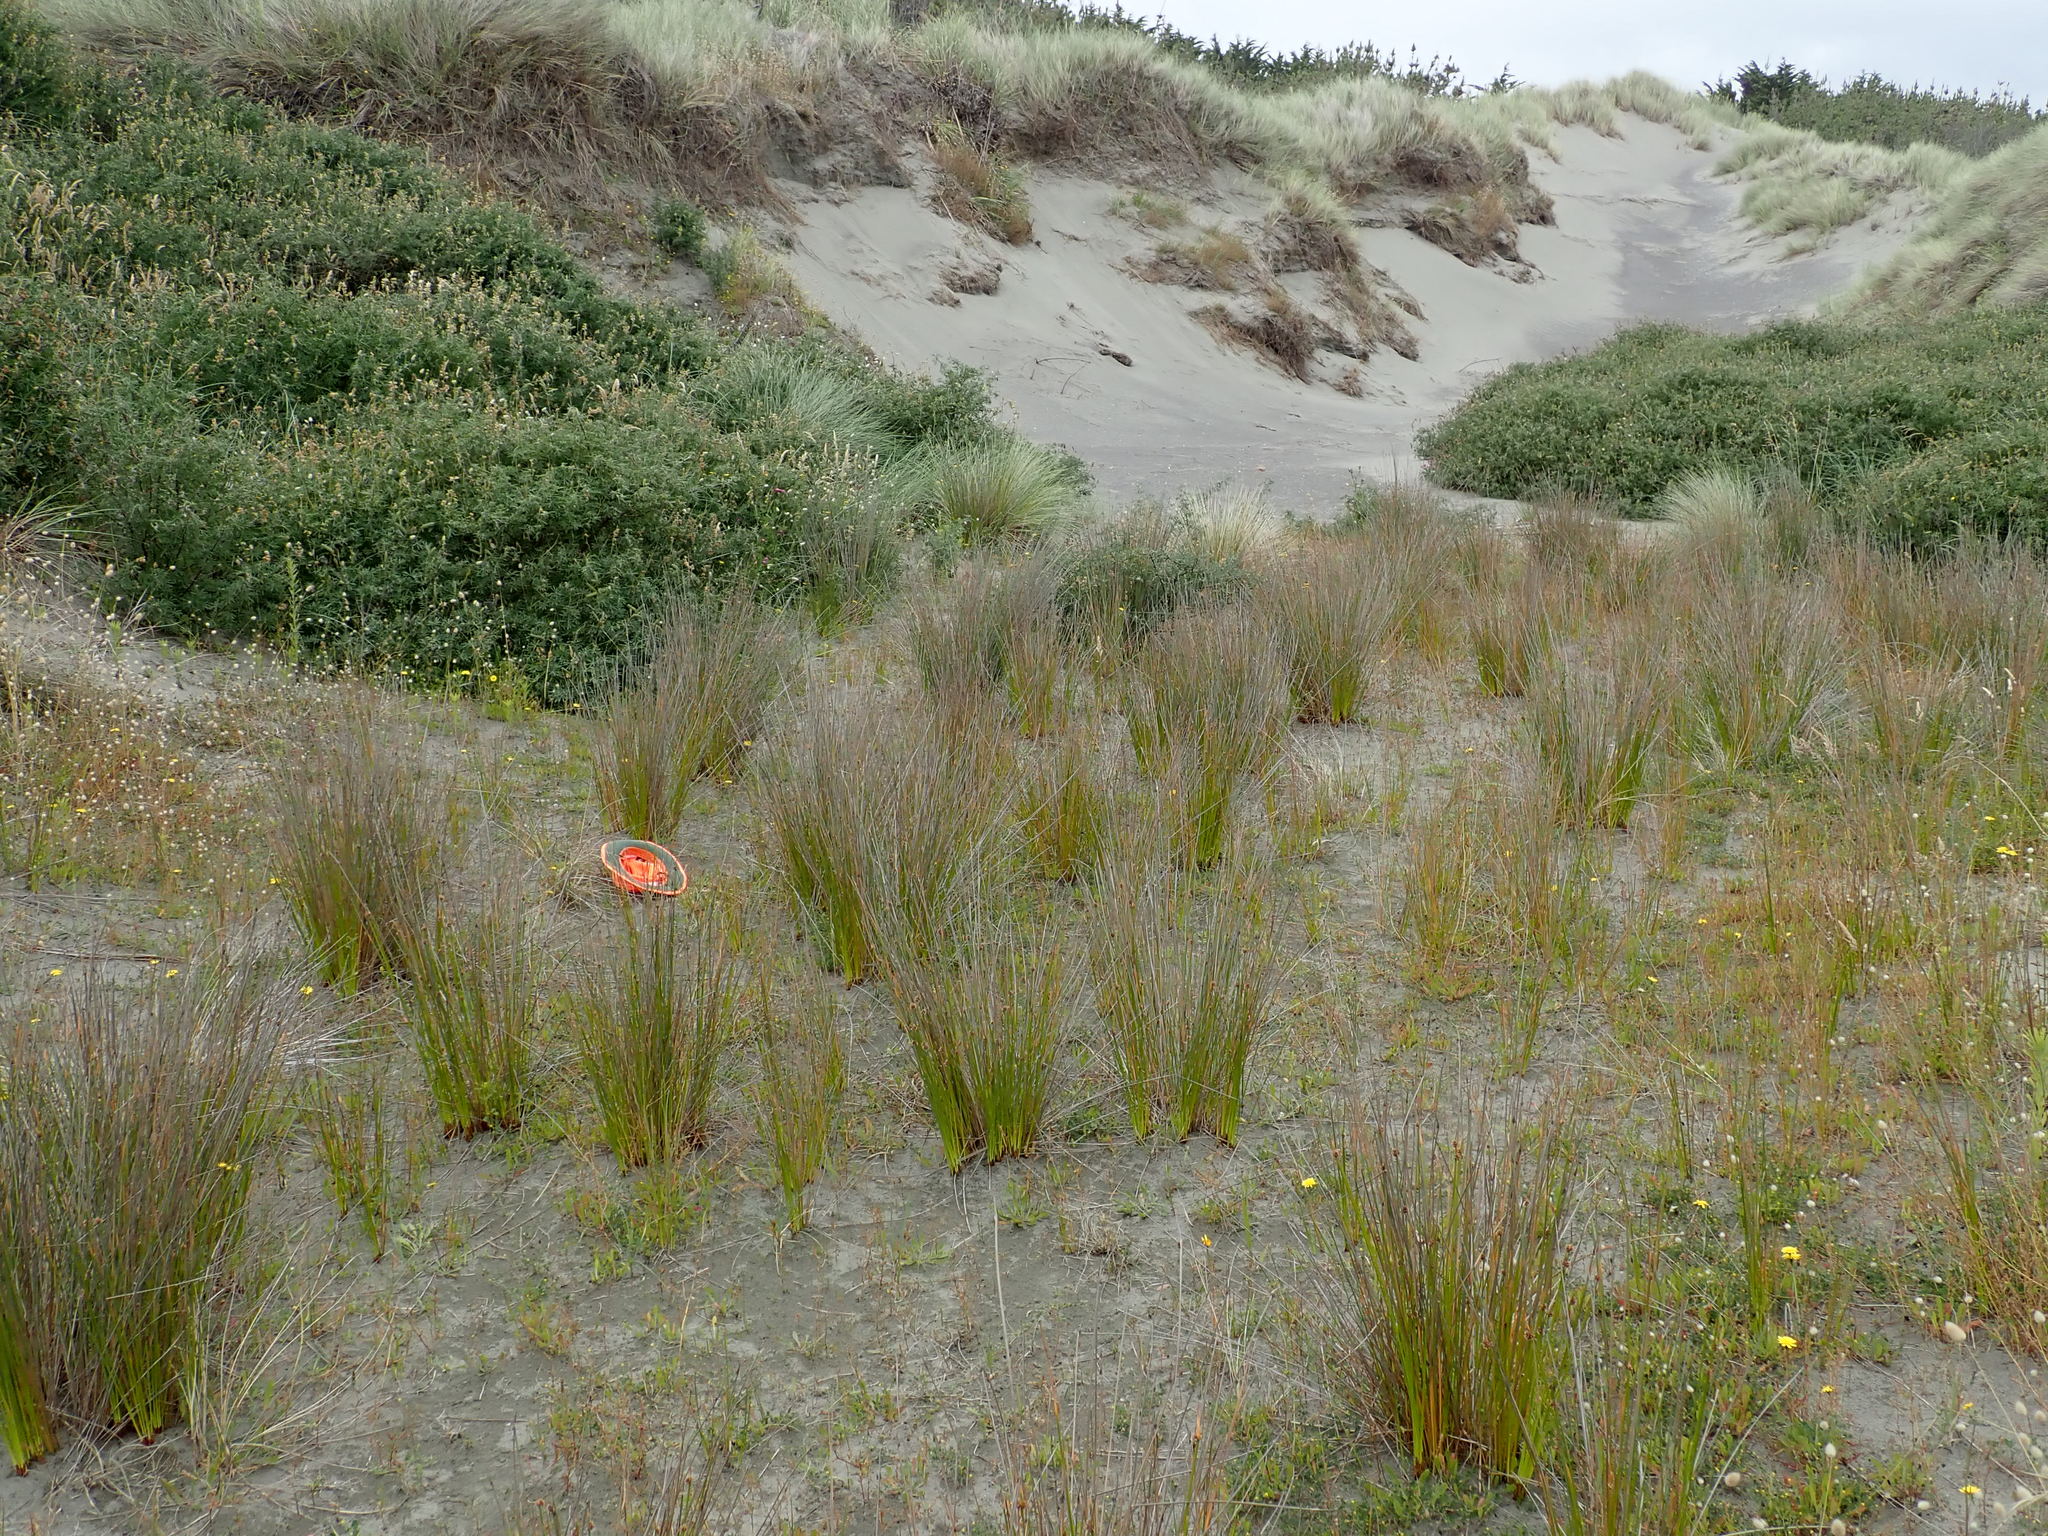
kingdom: Animalia
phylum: Arthropoda
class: Insecta
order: Coleoptera
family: Coccinellidae
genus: Coccinella
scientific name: Coccinella undecimpunctata
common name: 11-spot ladybird
